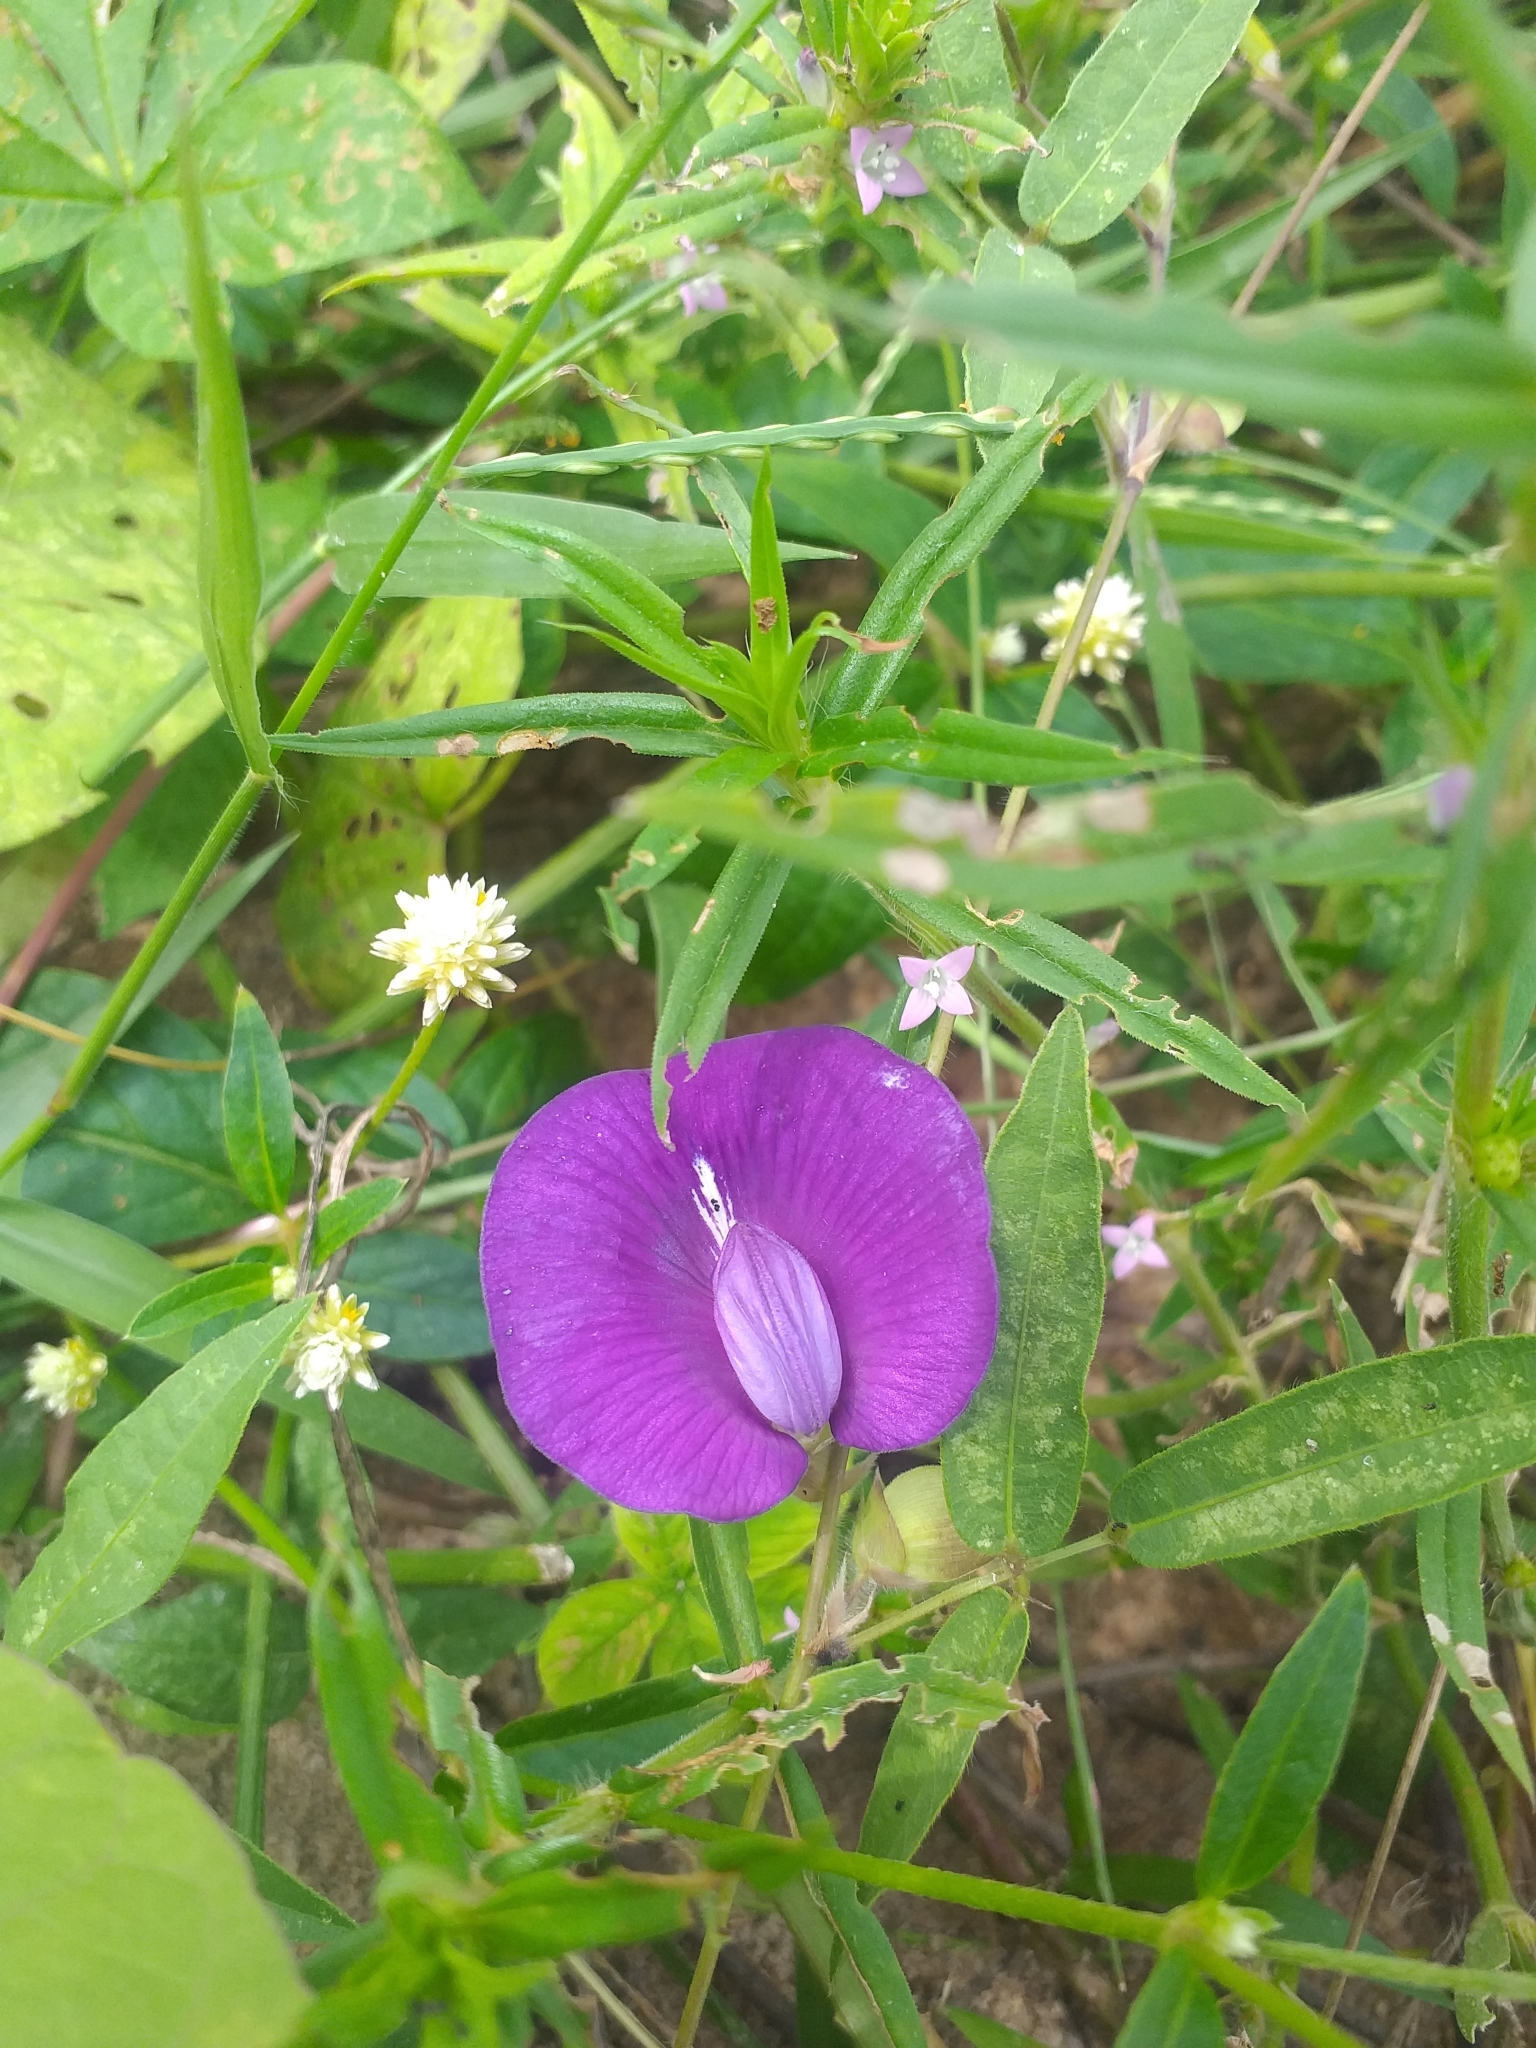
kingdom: Plantae
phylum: Tracheophyta
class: Magnoliopsida
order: Fabales
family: Fabaceae
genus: Centrosema
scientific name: Centrosema brasilianum
